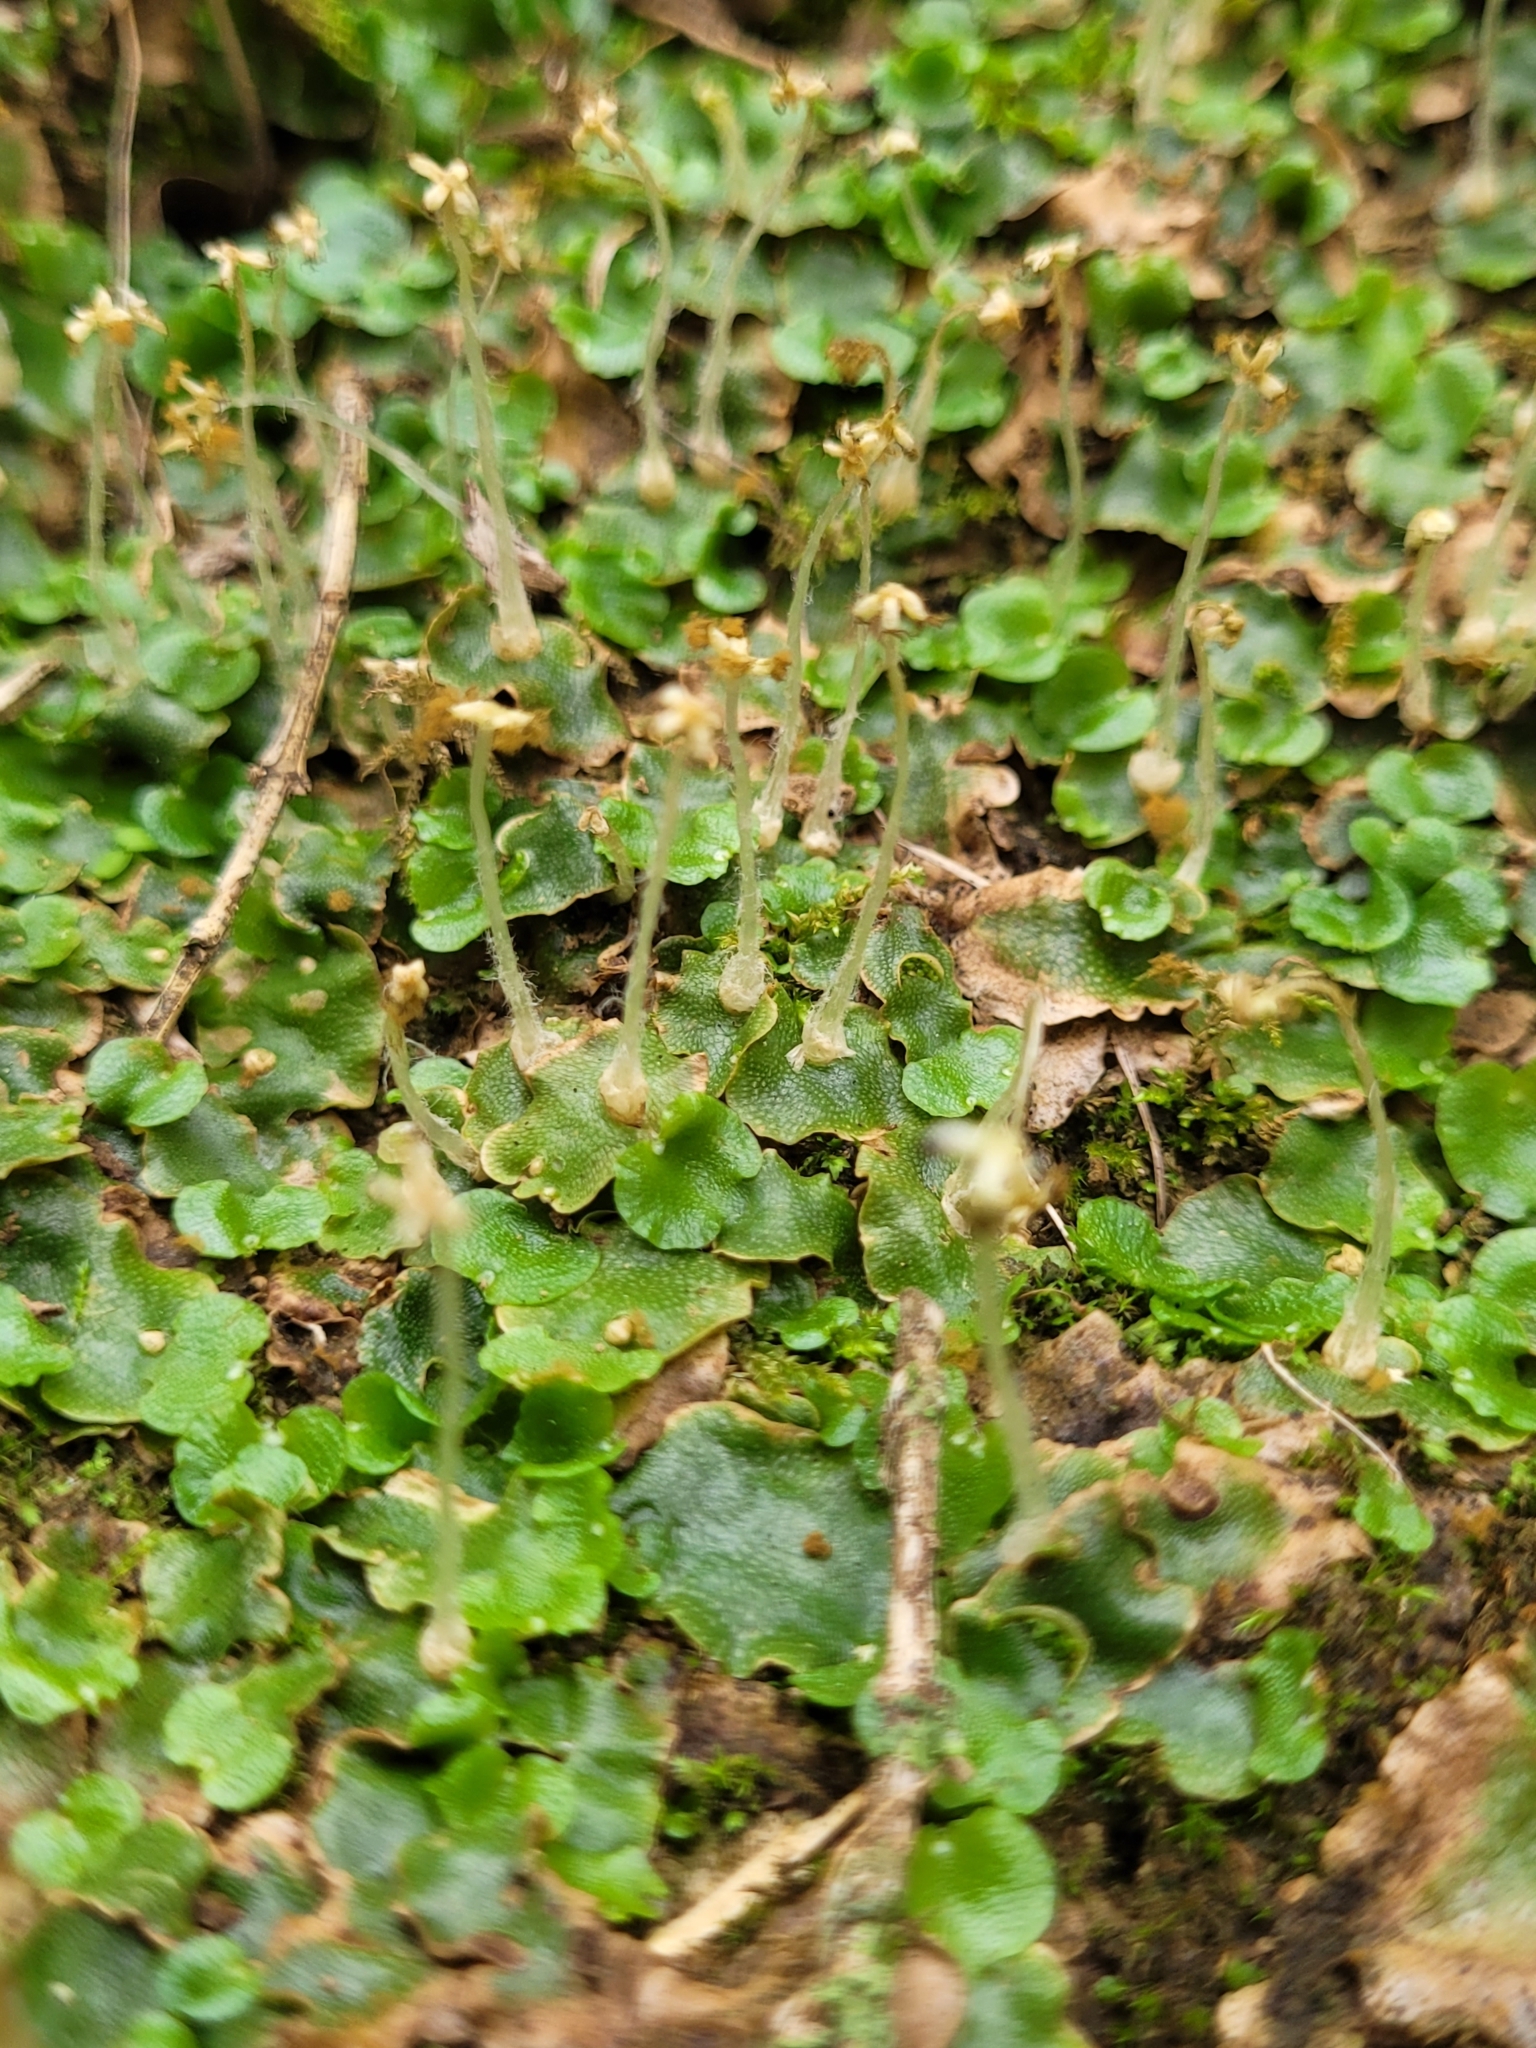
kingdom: Plantae
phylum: Marchantiophyta
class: Marchantiopsida
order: Lunulariales
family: Lunulariaceae
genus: Lunularia
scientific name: Lunularia cruciata
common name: Crescent-cup liverwort
